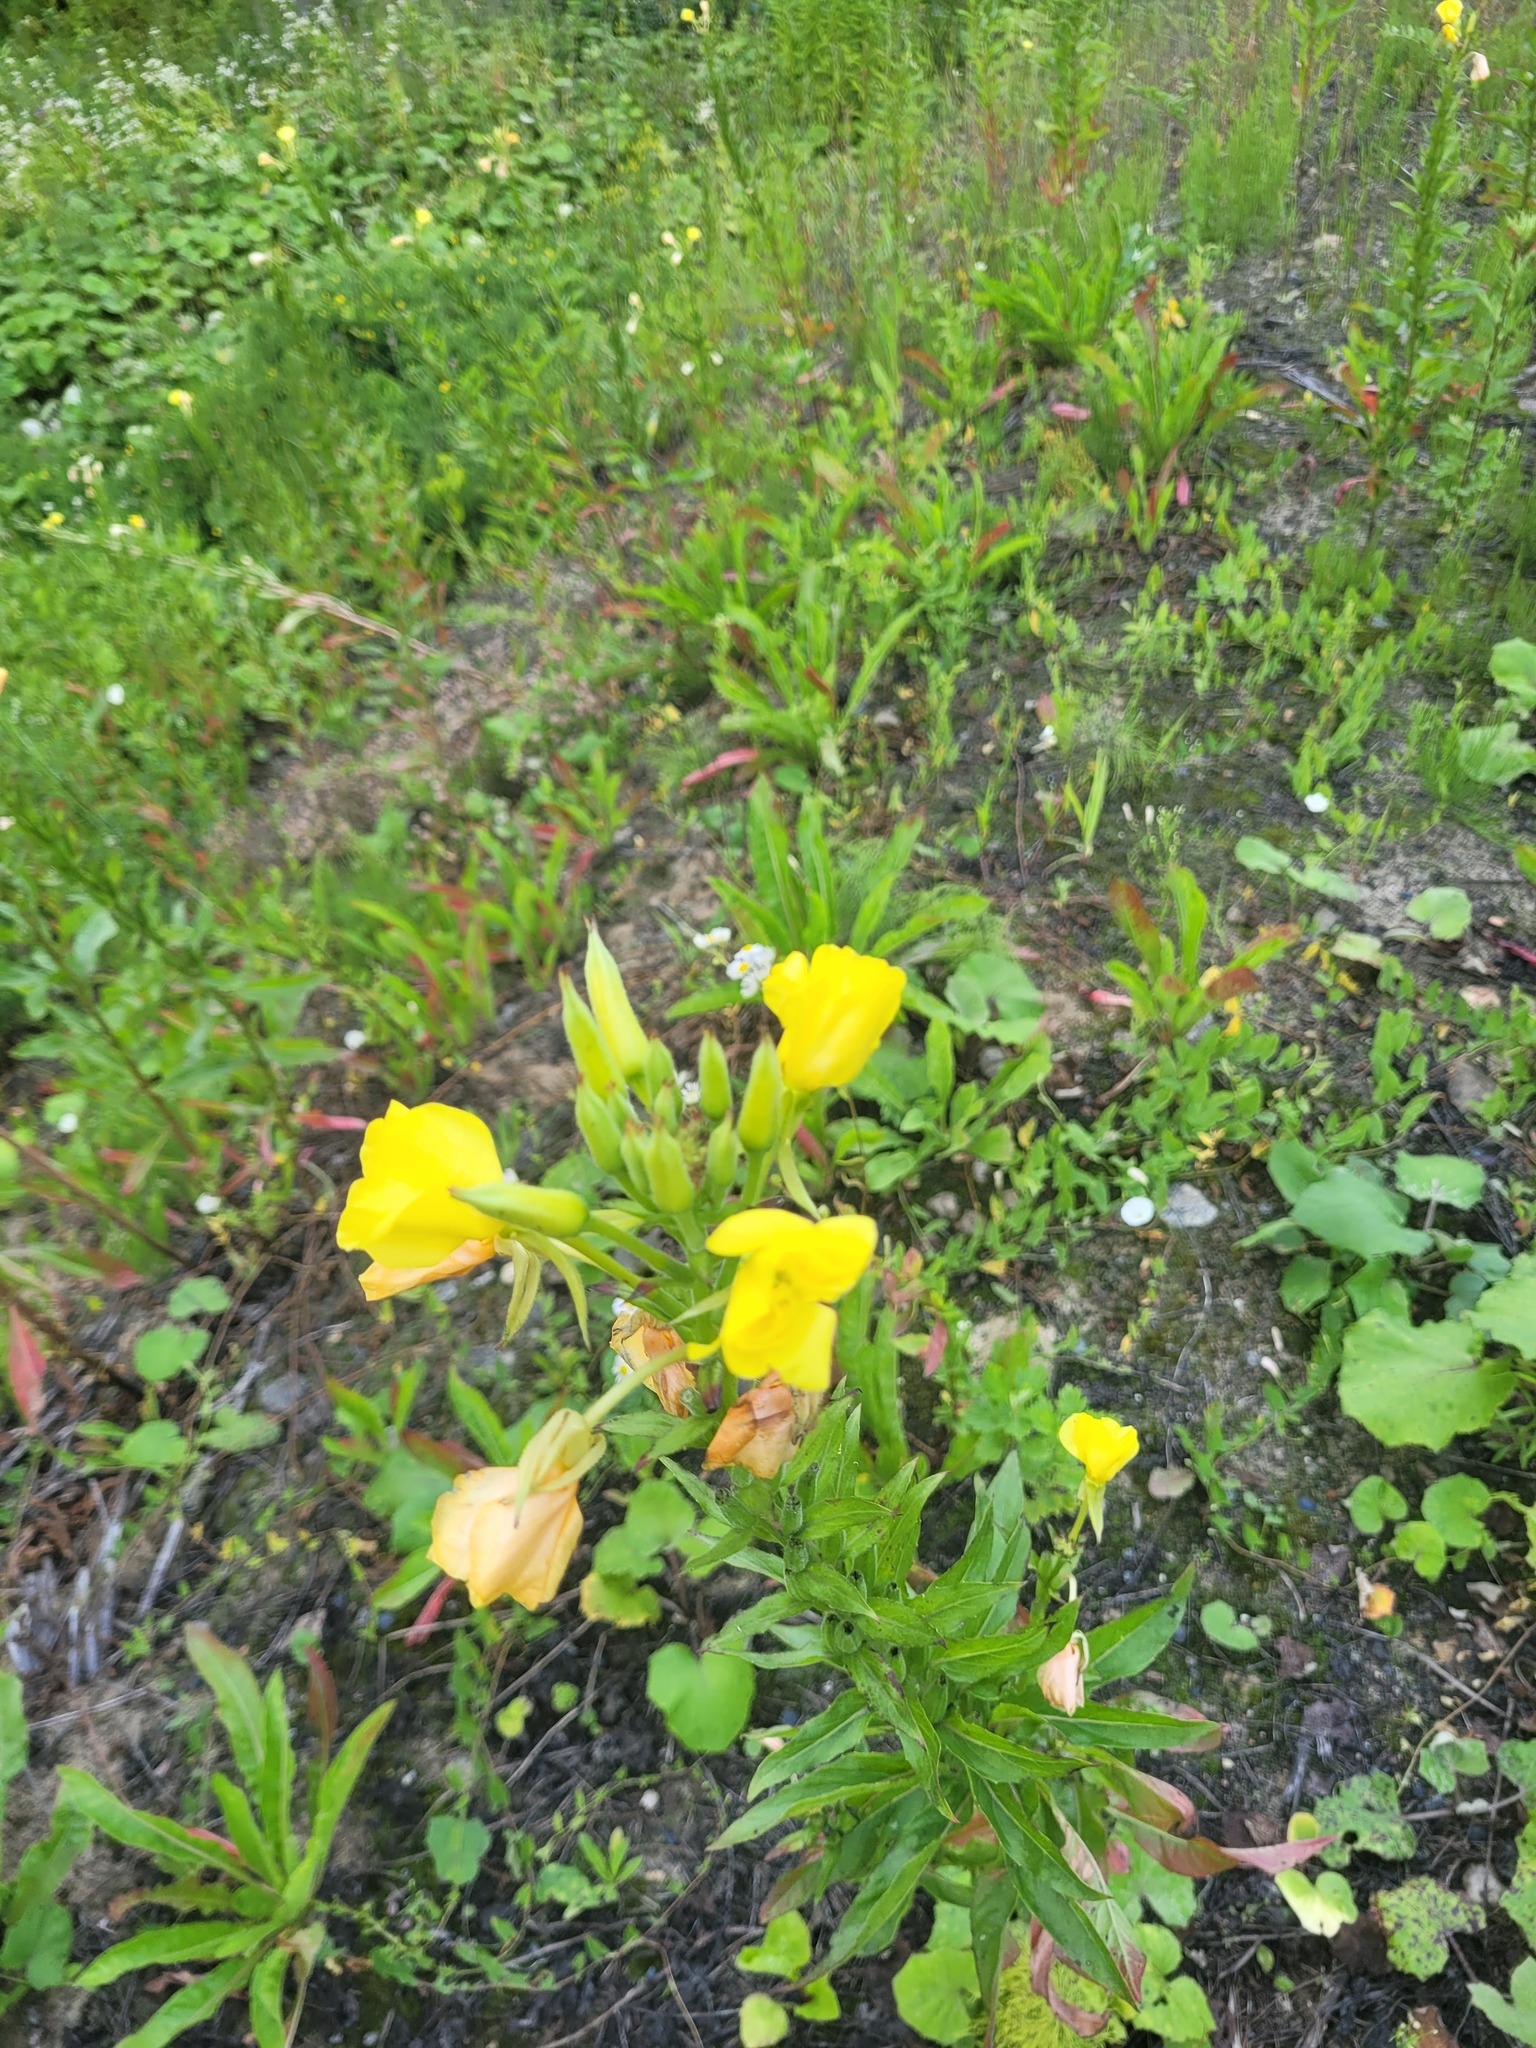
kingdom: Plantae
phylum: Tracheophyta
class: Magnoliopsida
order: Myrtales
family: Onagraceae
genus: Oenothera
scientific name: Oenothera biennis
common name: Common evening-primrose
